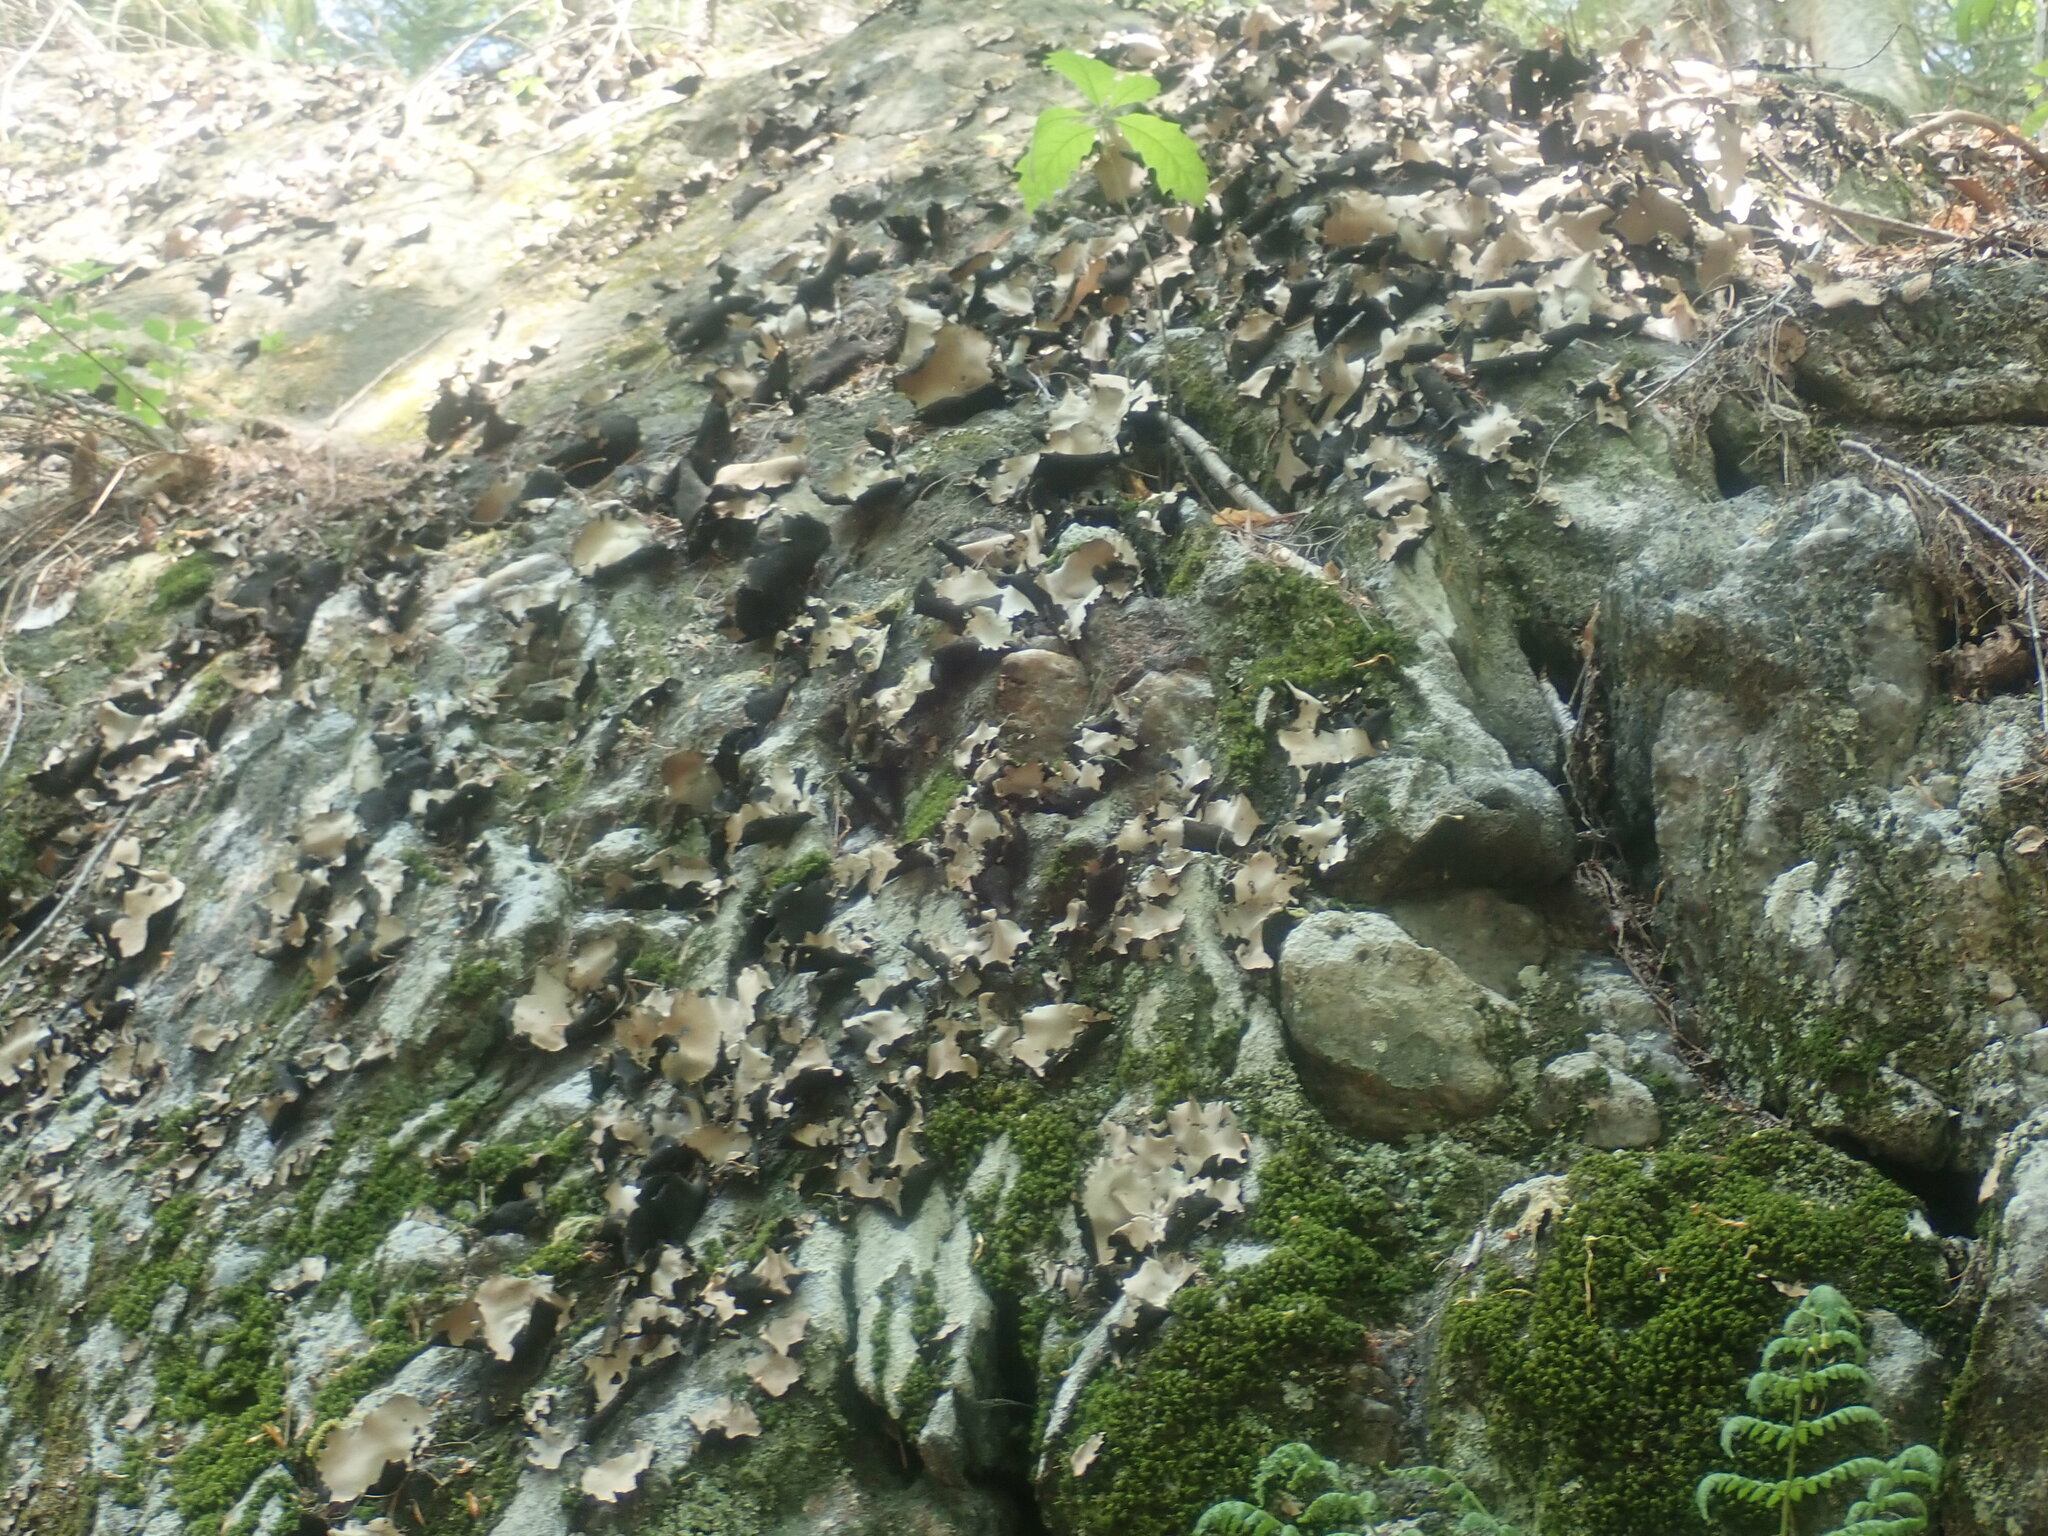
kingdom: Fungi
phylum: Ascomycota
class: Lecanoromycetes
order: Umbilicariales
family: Umbilicariaceae
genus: Umbilicaria
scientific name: Umbilicaria mammulata
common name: Smooth rock tripe
